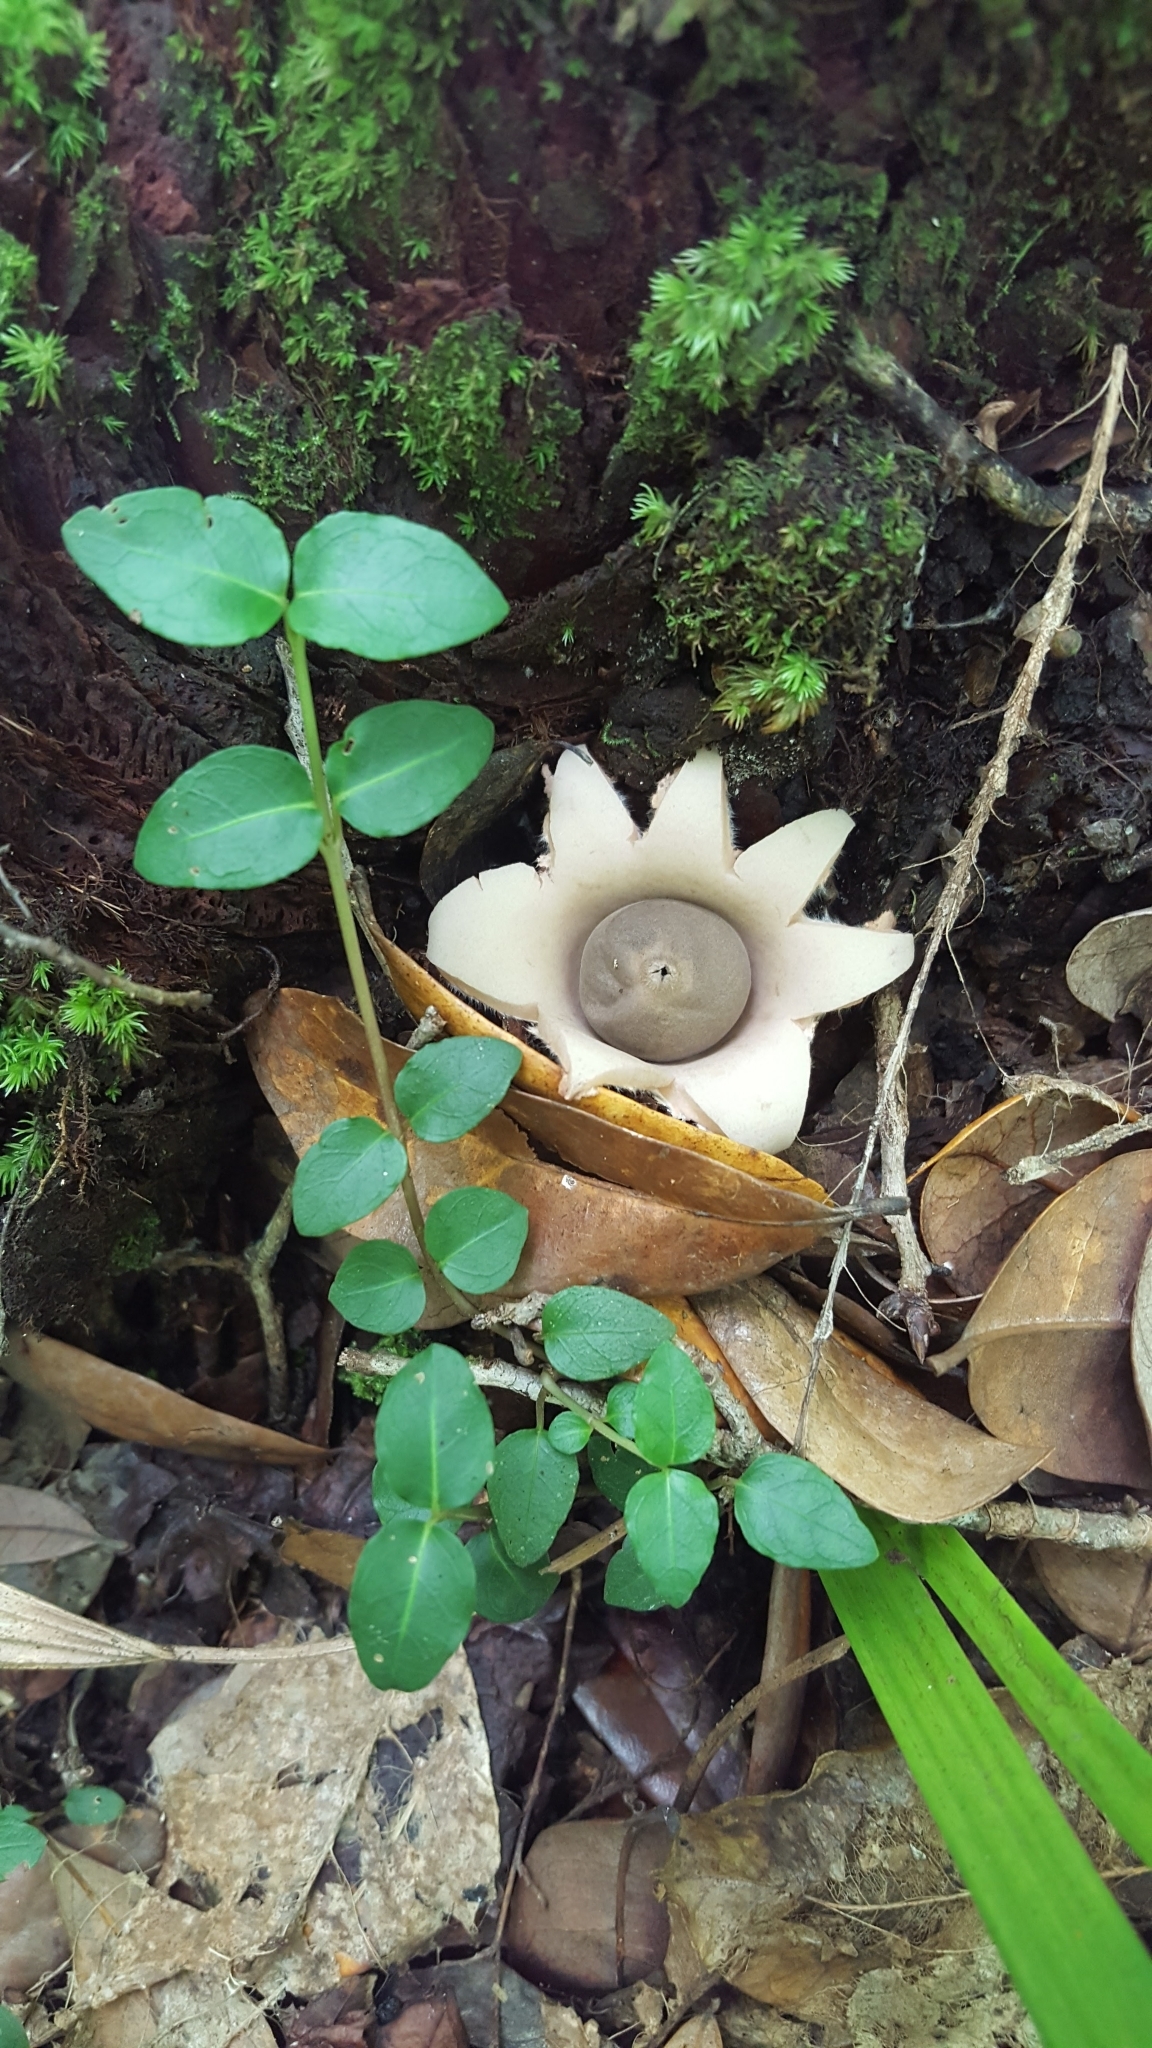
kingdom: Plantae
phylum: Tracheophyta
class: Magnoliopsida
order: Gentianales
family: Rubiaceae
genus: Mitchella
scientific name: Mitchella repens
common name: Partridge-berry
